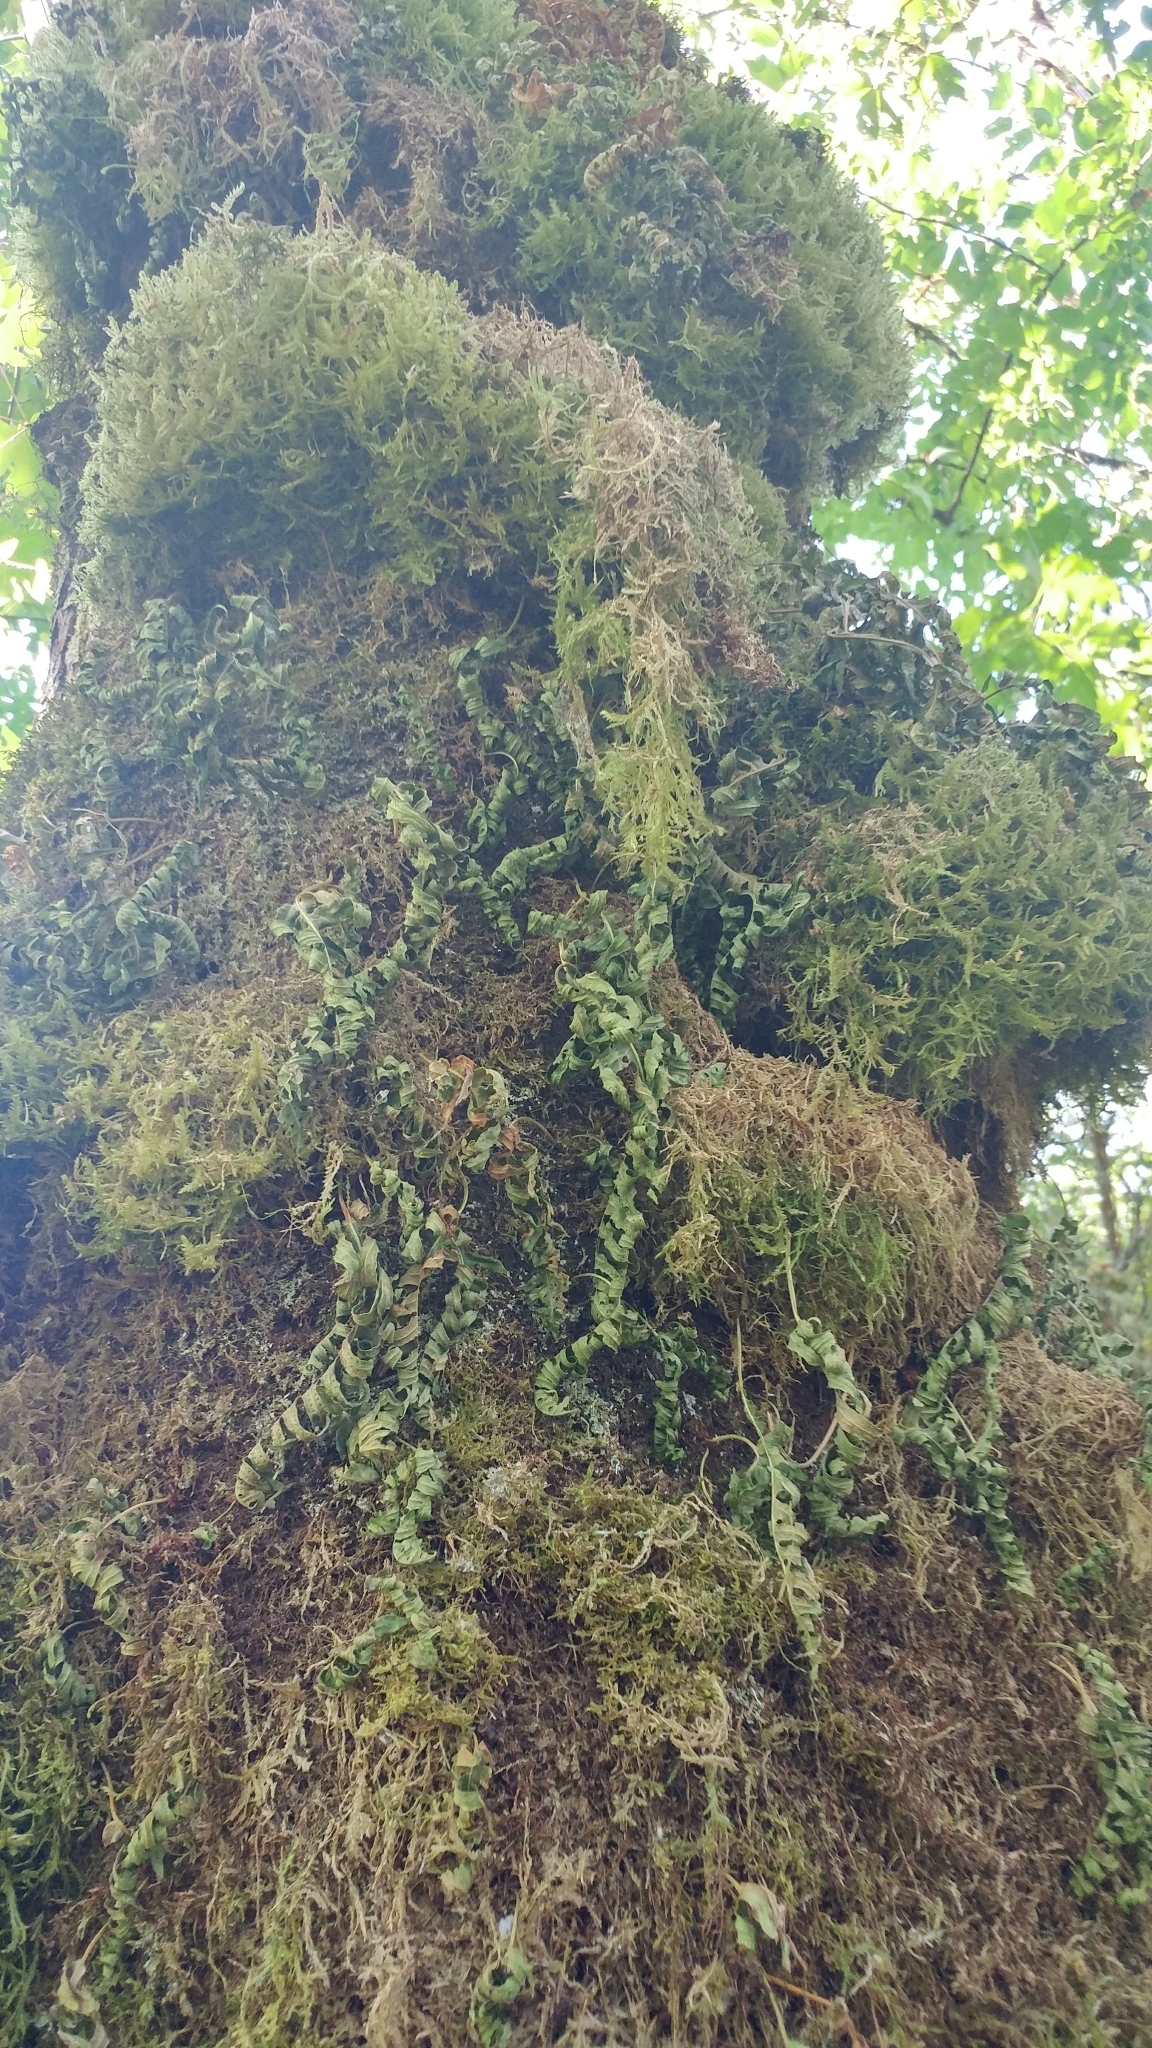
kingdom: Plantae
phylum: Tracheophyta
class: Polypodiopsida
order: Polypodiales
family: Polypodiaceae
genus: Polypodium
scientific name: Polypodium glycyrrhiza
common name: Licorice fern
